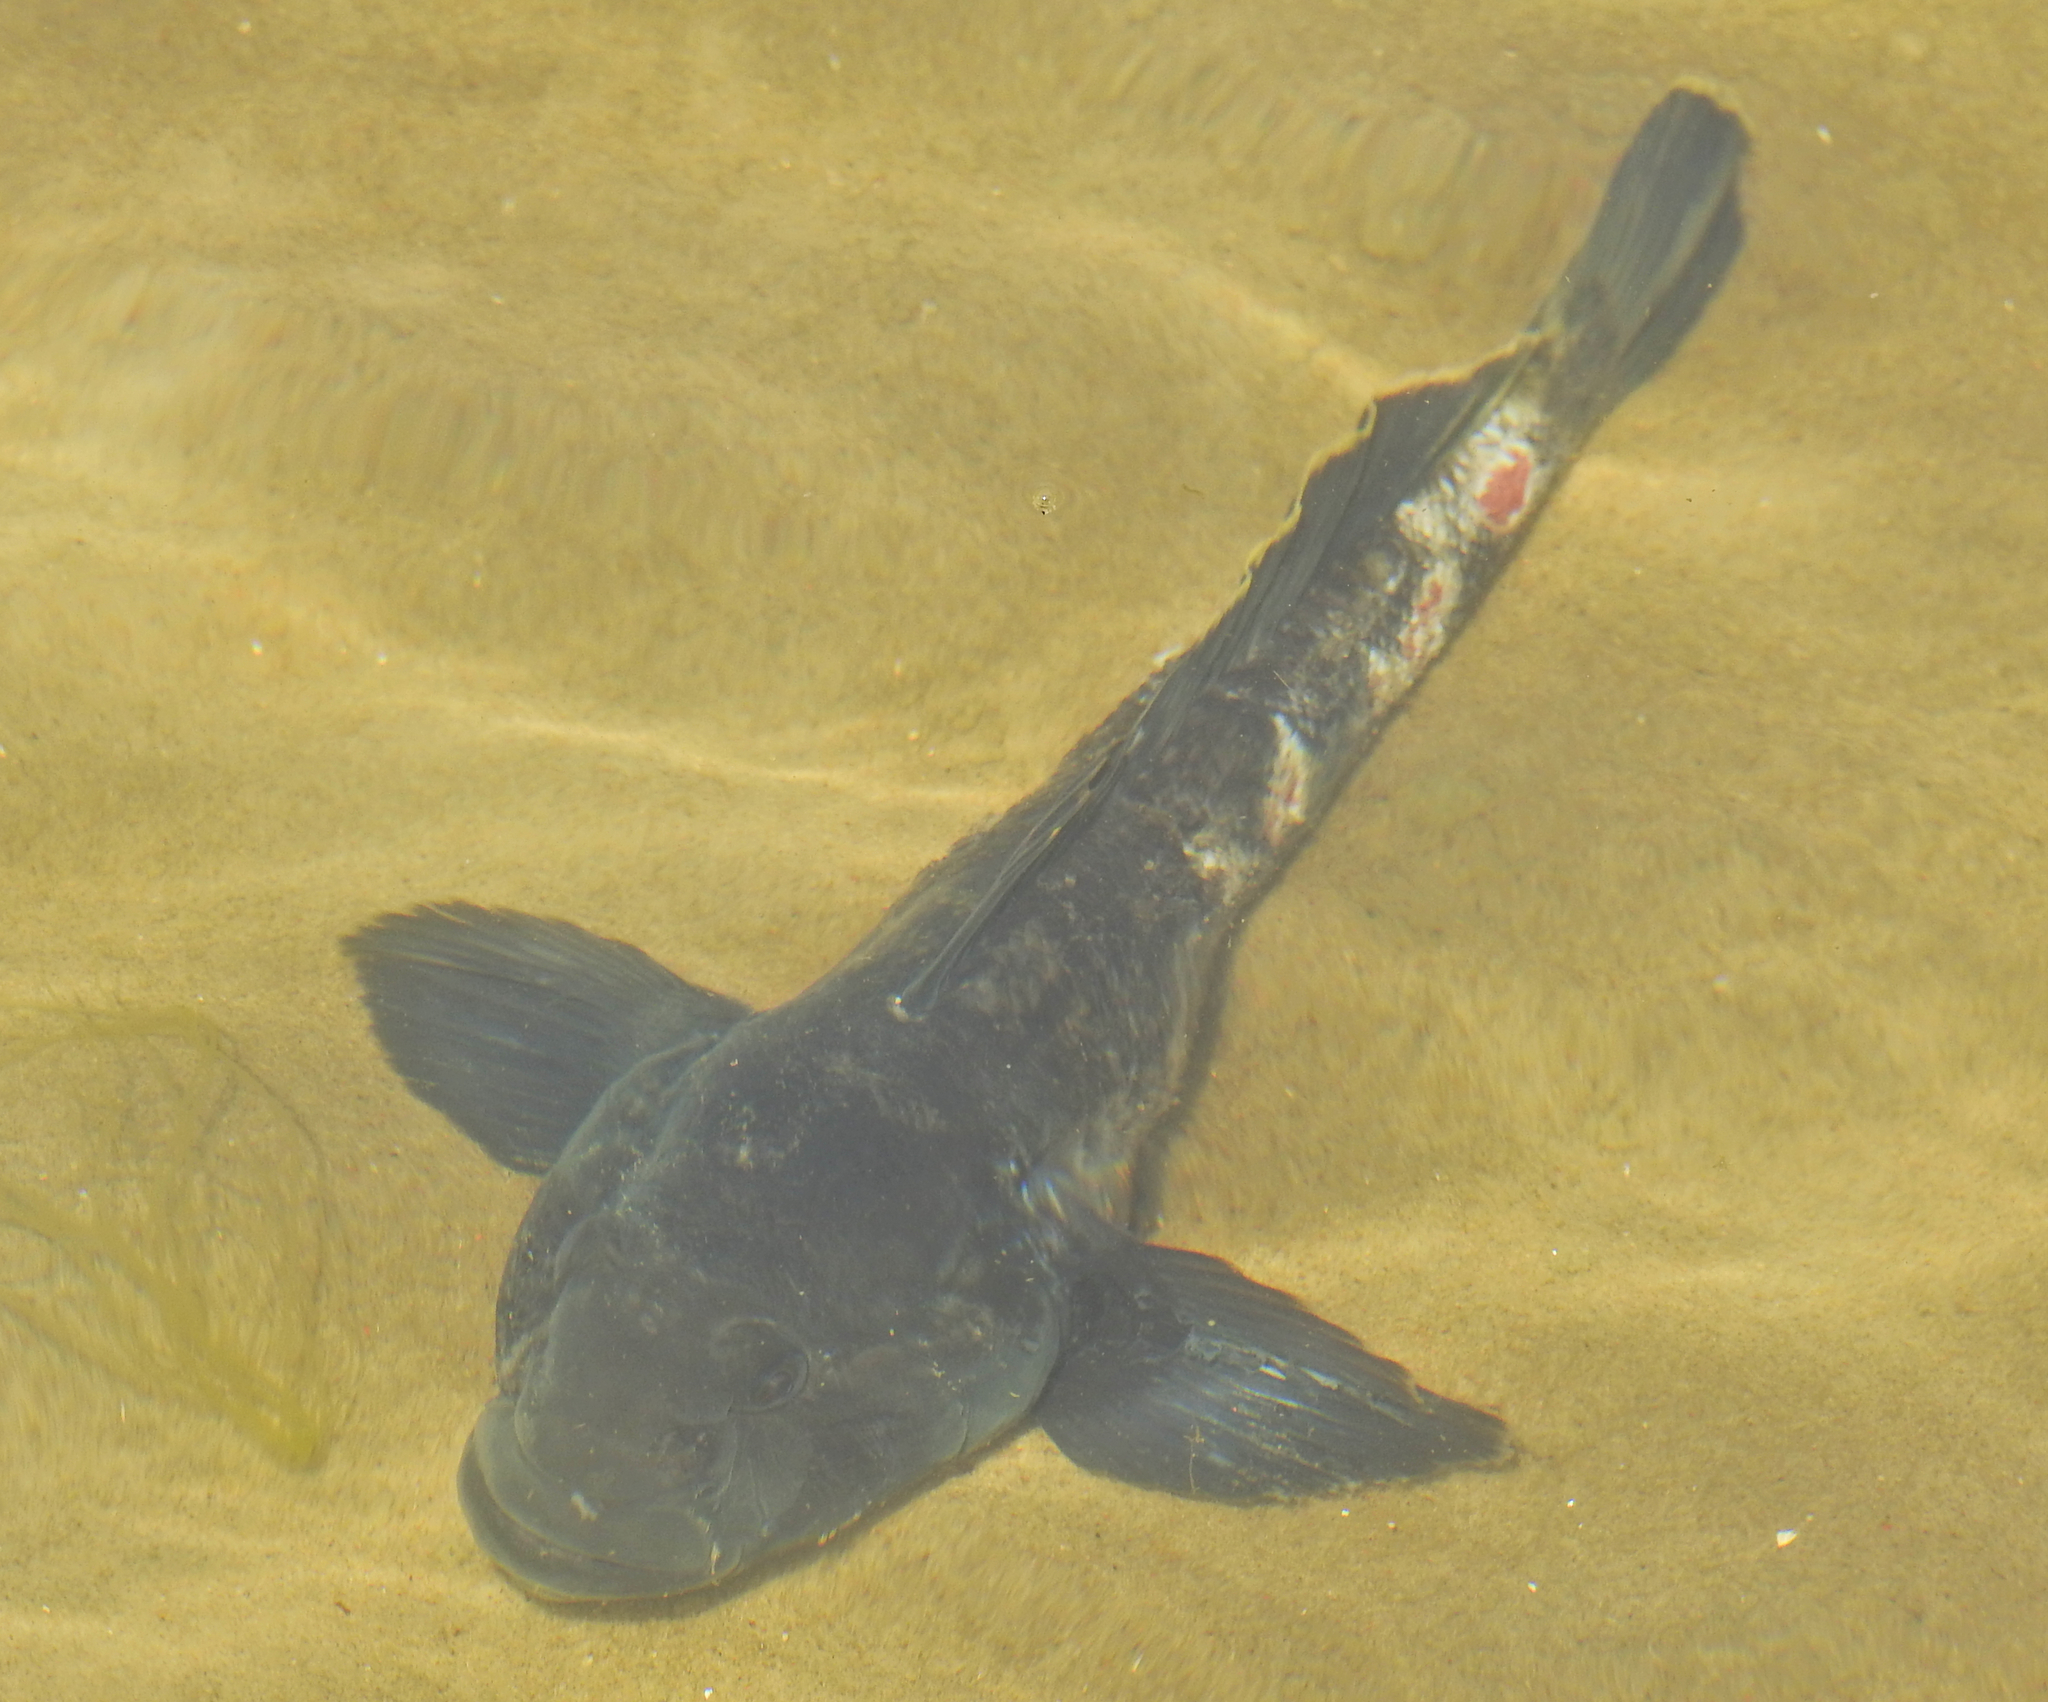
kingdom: Animalia
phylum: Chordata
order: Perciformes
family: Gobiidae
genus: Neogobius
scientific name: Neogobius melanostomus
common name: Round goby
